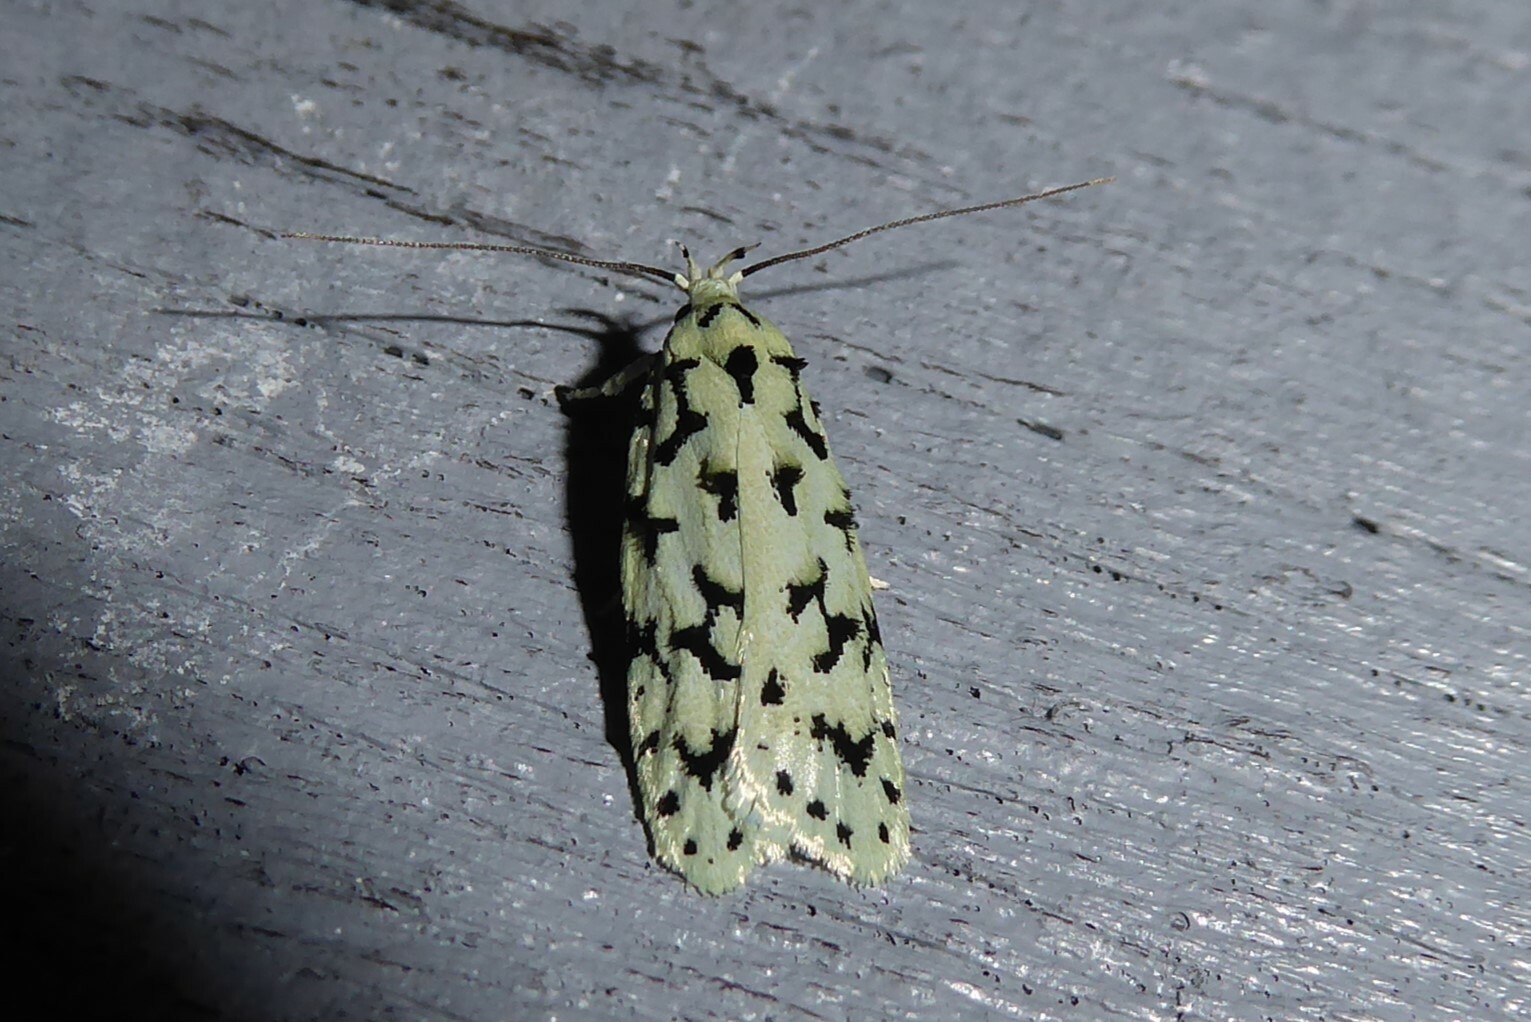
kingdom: Animalia
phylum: Arthropoda
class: Insecta
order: Lepidoptera
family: Oecophoridae
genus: Izatha
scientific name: Izatha huttoni
